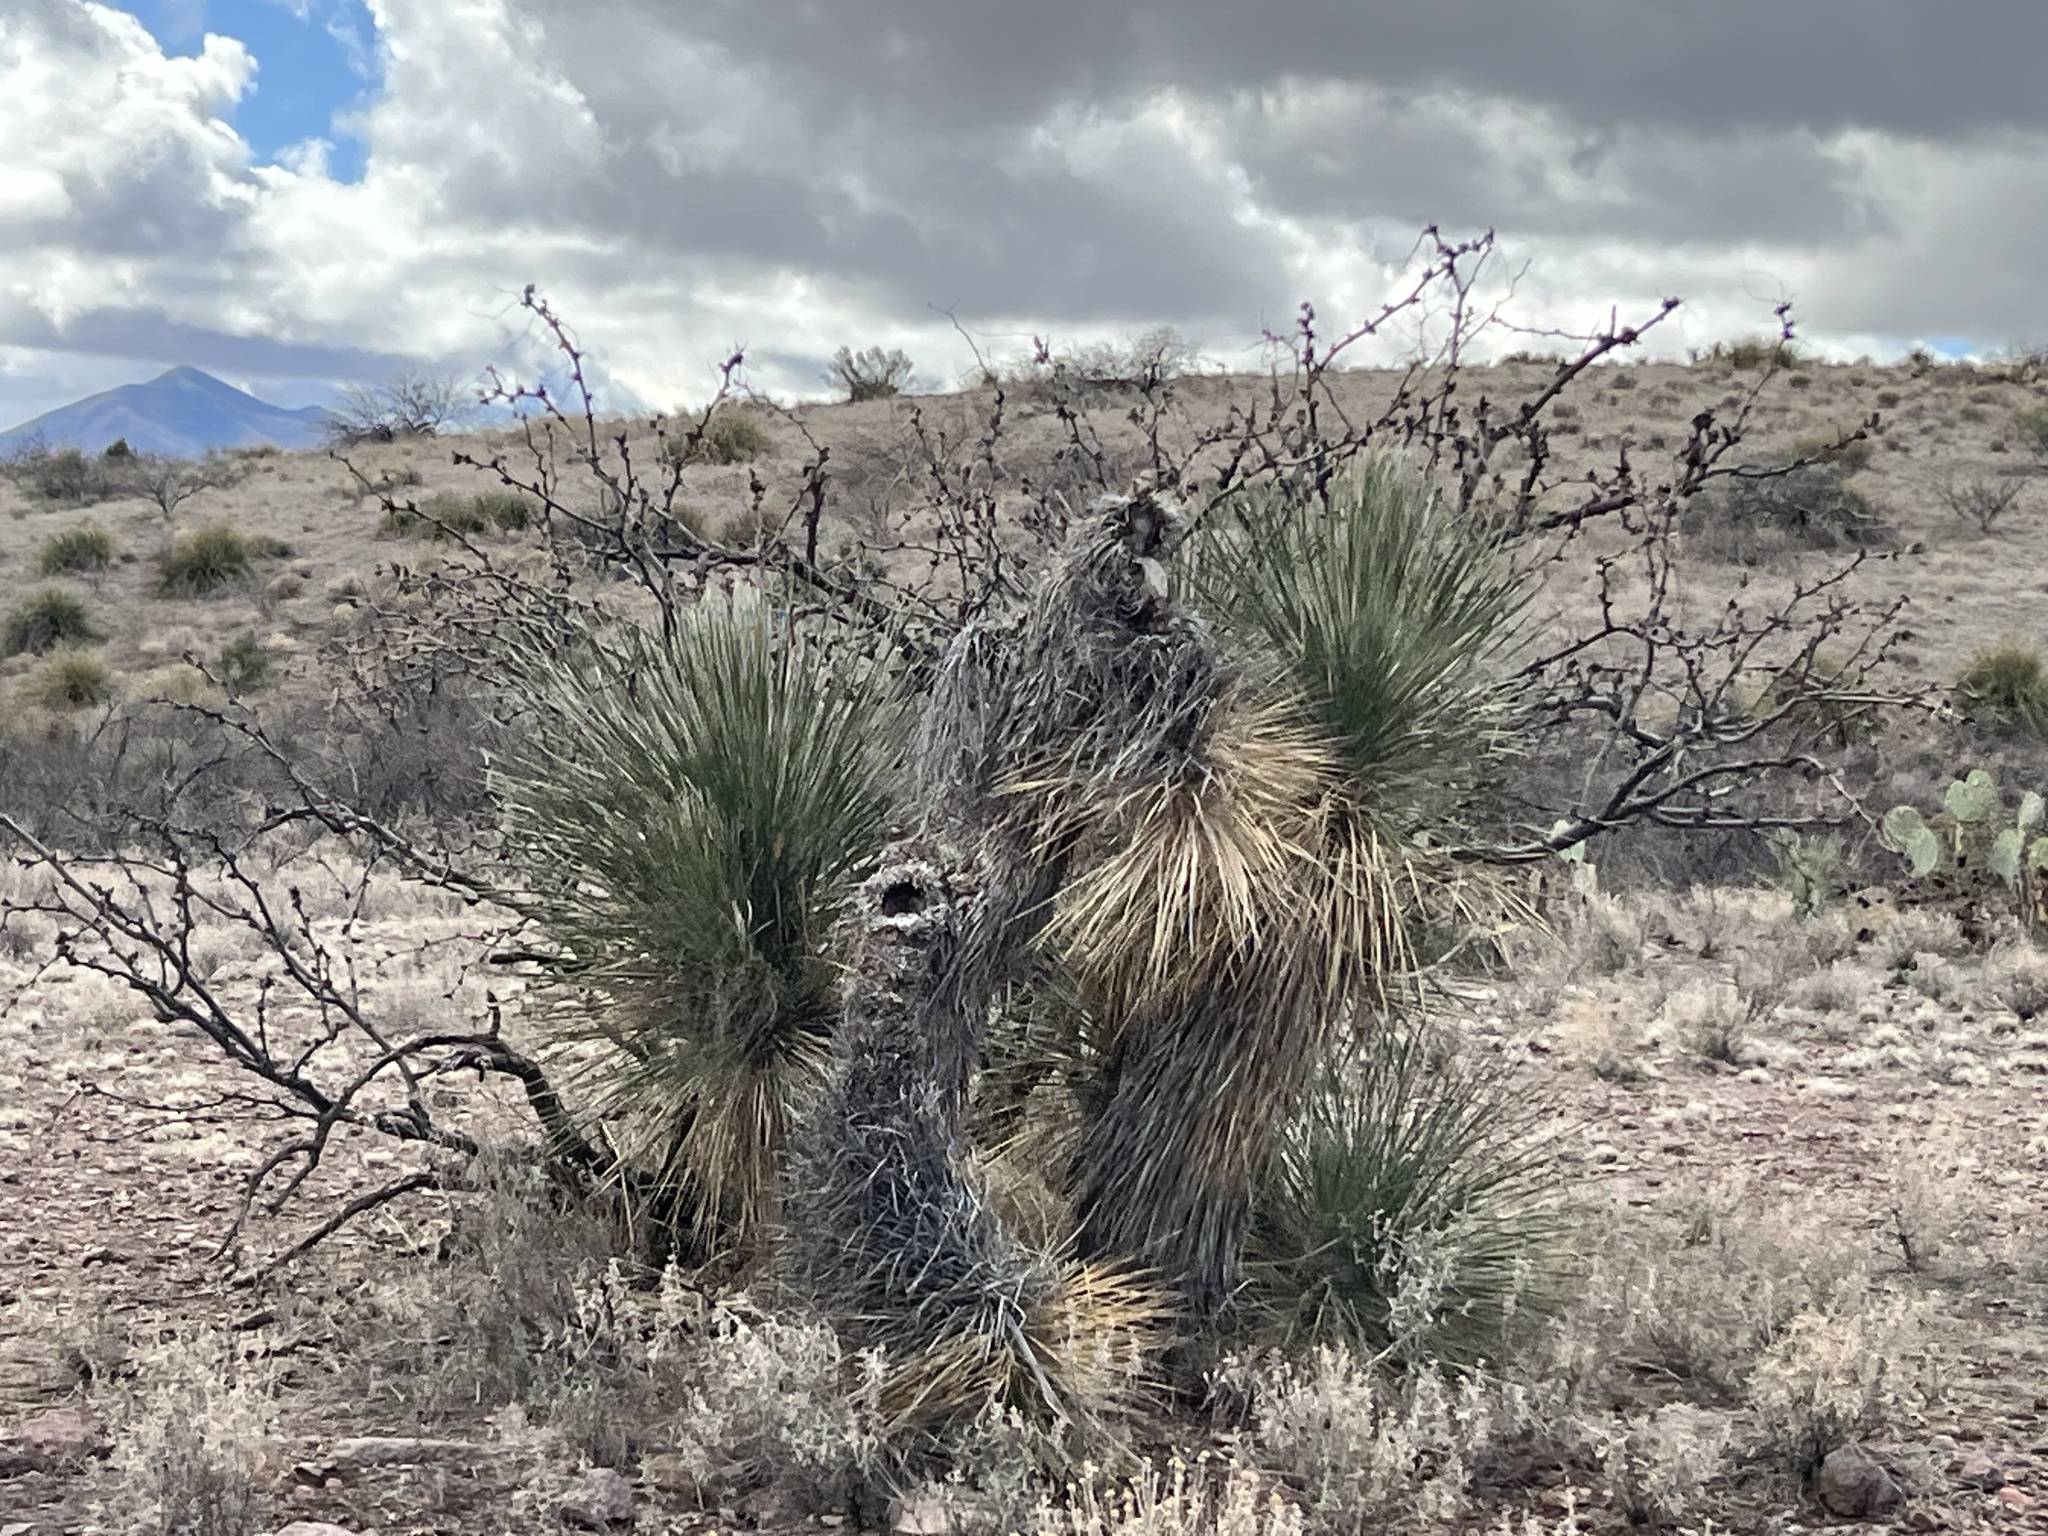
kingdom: Plantae
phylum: Tracheophyta
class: Liliopsida
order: Asparagales
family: Asparagaceae
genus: Yucca
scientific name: Yucca elata
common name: Palmella
